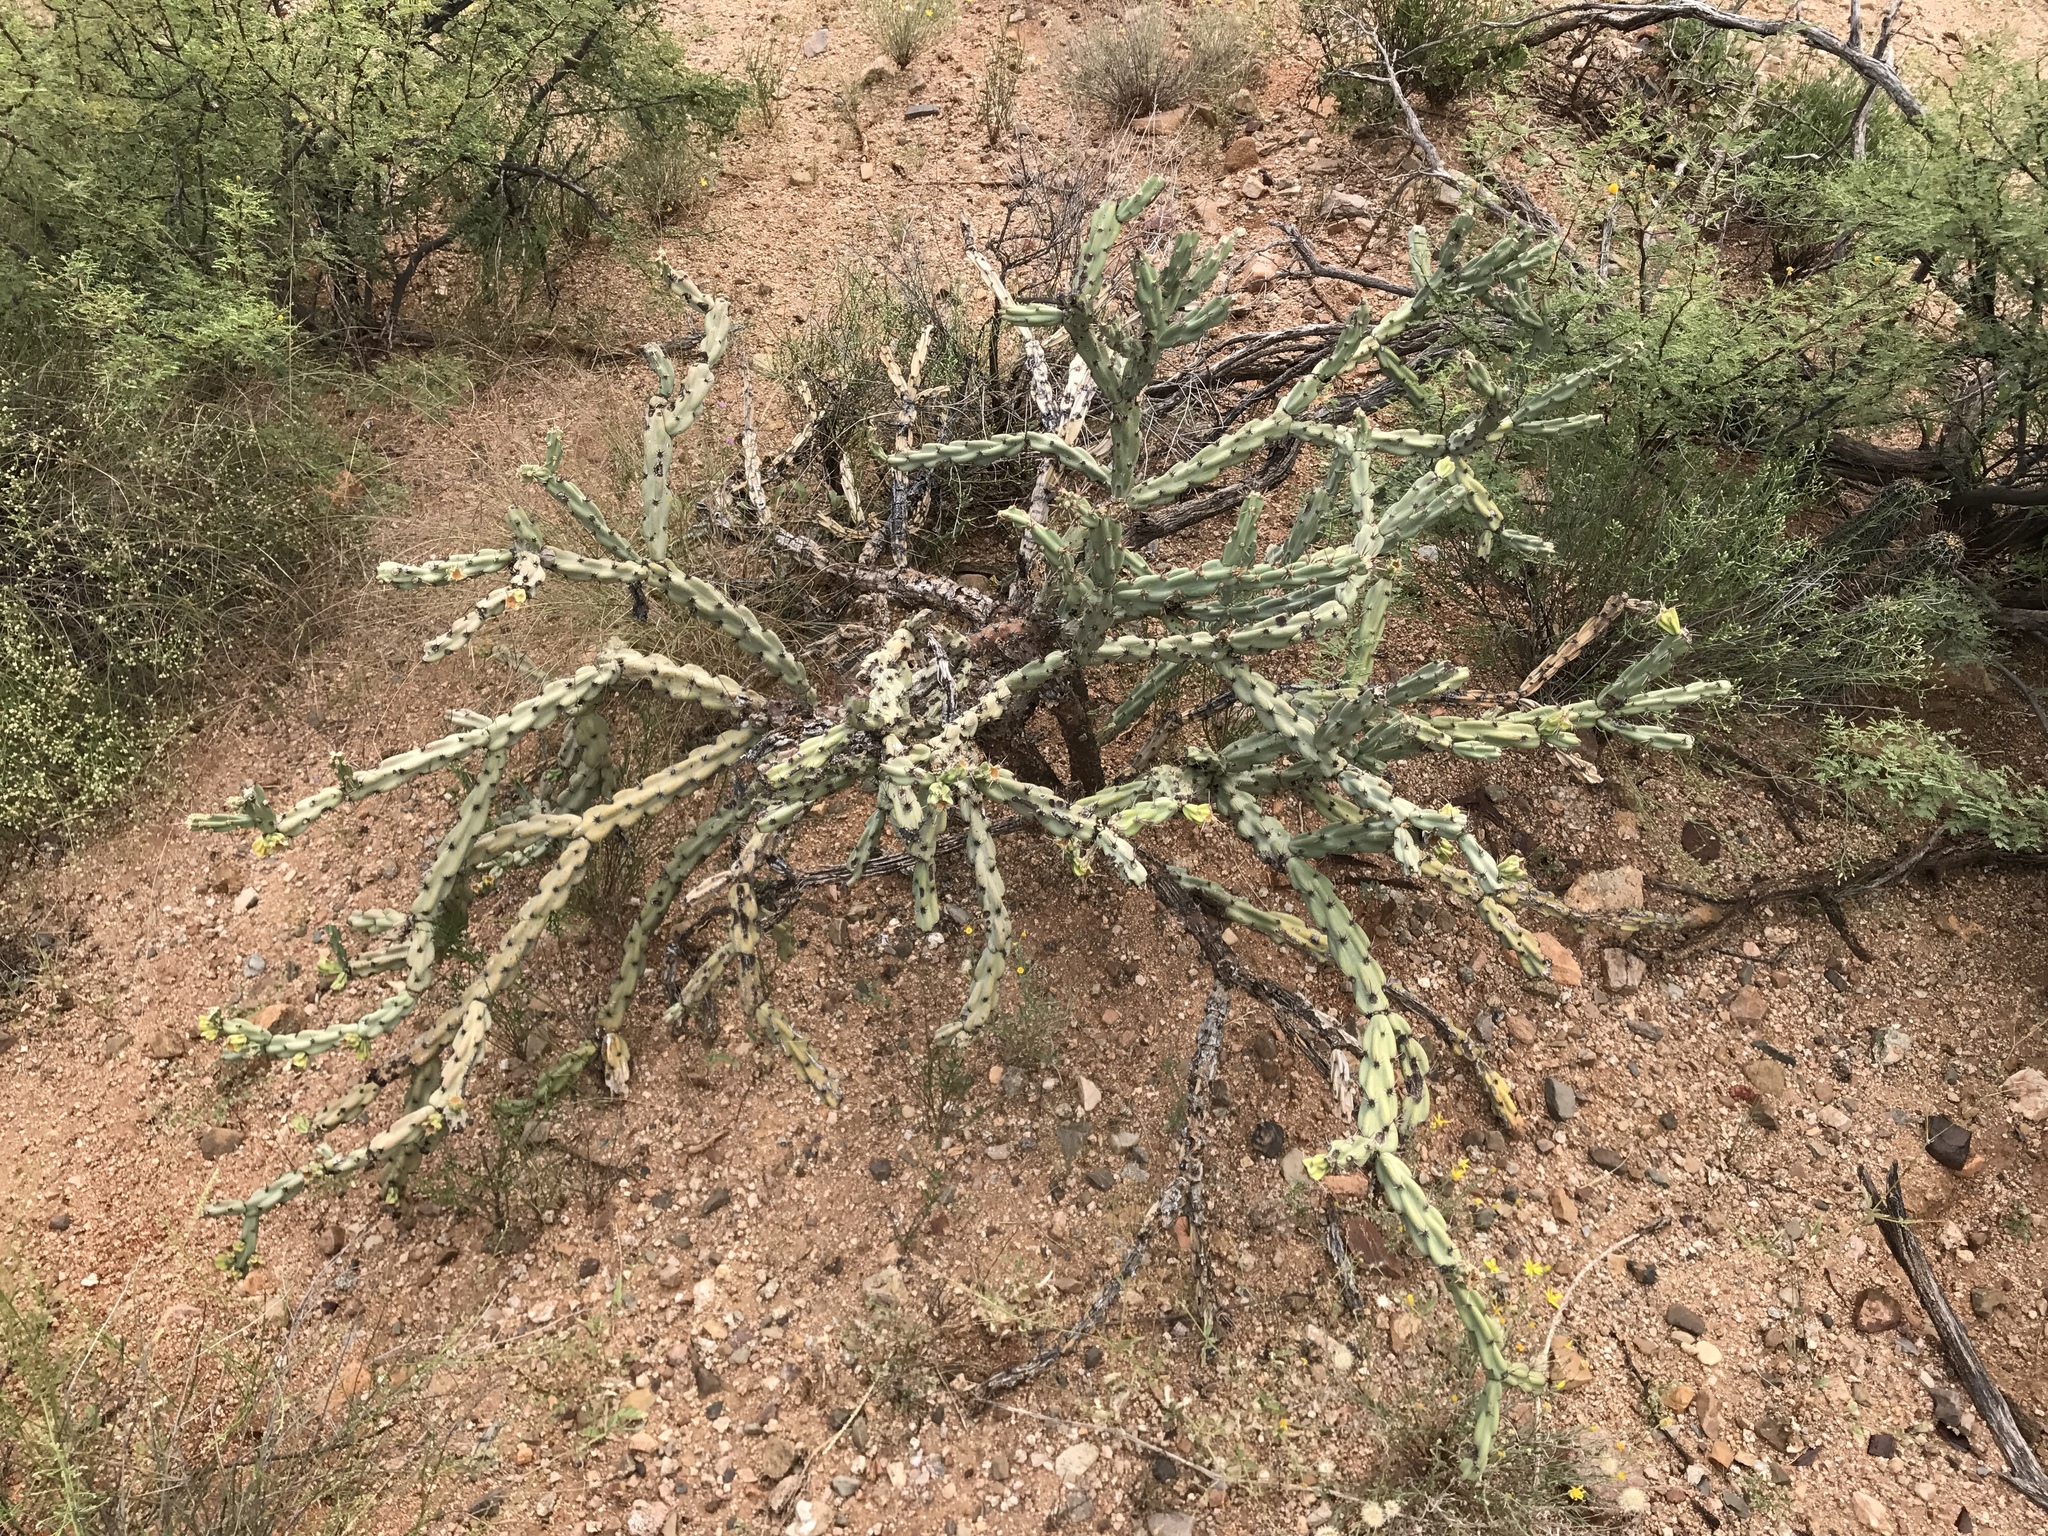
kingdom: Plantae
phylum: Tracheophyta
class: Magnoliopsida
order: Caryophyllales
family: Cactaceae
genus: Cylindropuntia
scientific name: Cylindropuntia acanthocarpa
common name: Buckhorn cholla
